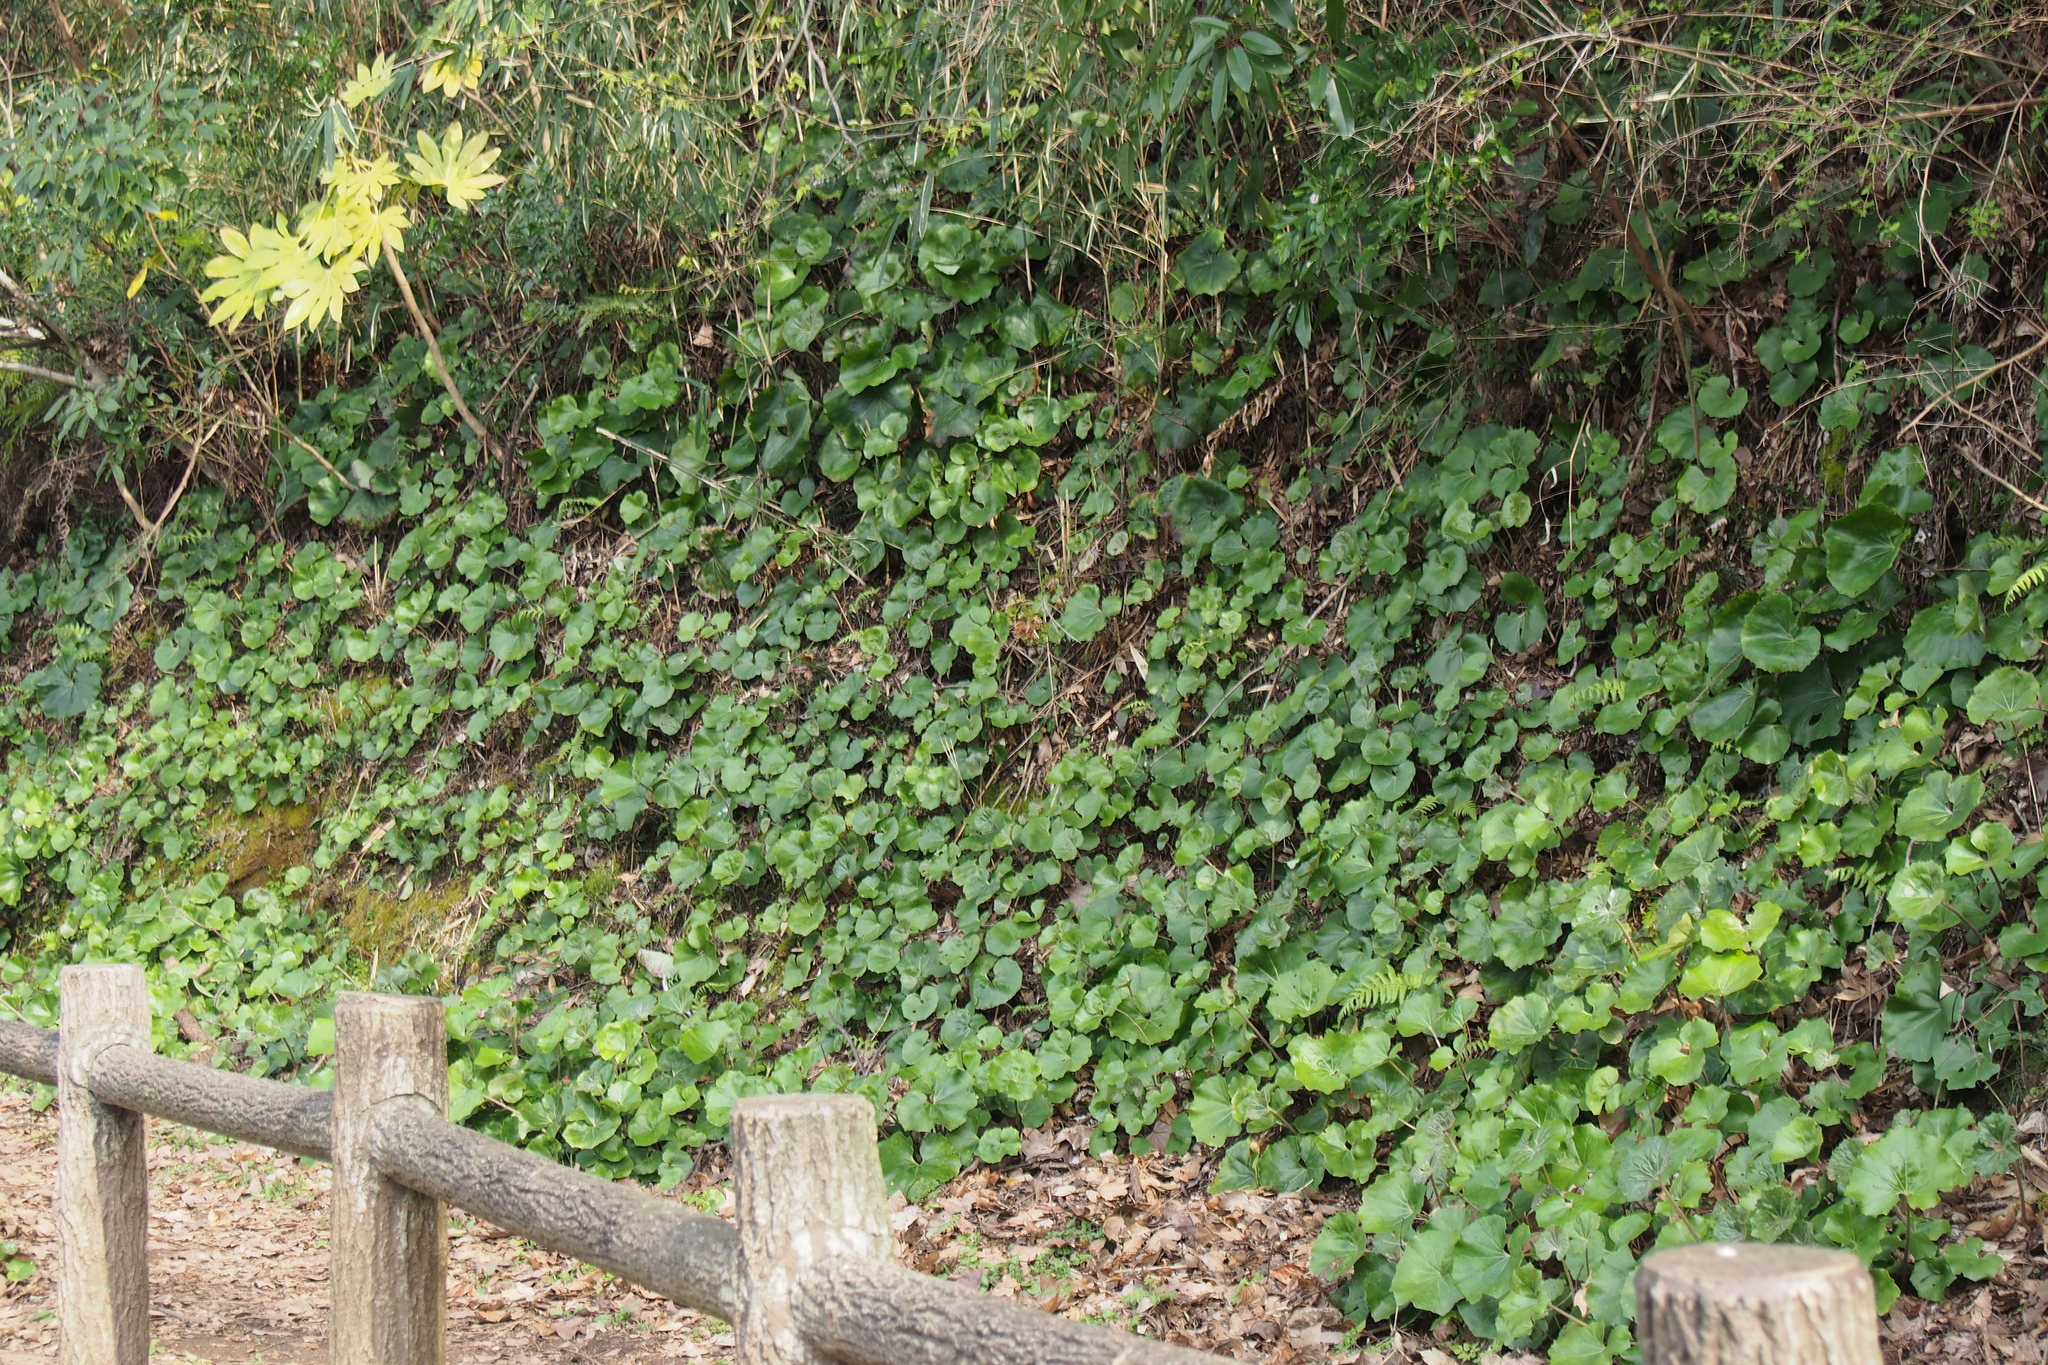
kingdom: Plantae
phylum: Tracheophyta
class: Magnoliopsida
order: Asterales
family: Asteraceae
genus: Farfugium
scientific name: Farfugium japonicum
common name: Leopardplant
